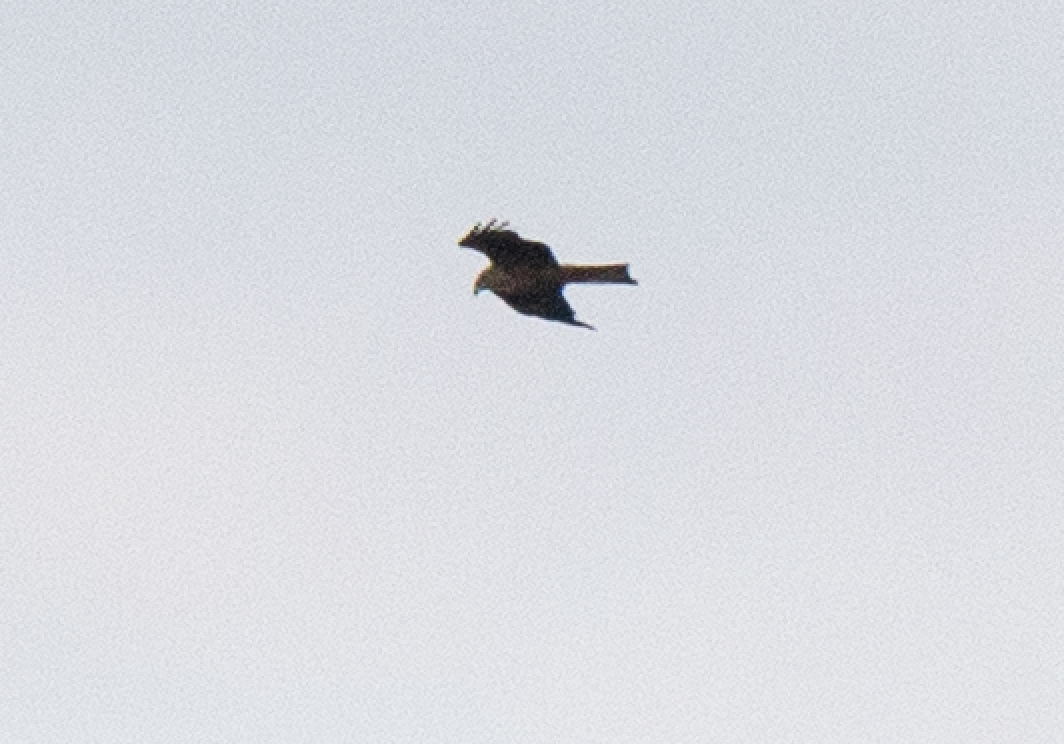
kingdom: Animalia
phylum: Chordata
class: Aves
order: Accipitriformes
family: Accipitridae
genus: Milvus
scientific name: Milvus migrans
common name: Black kite
